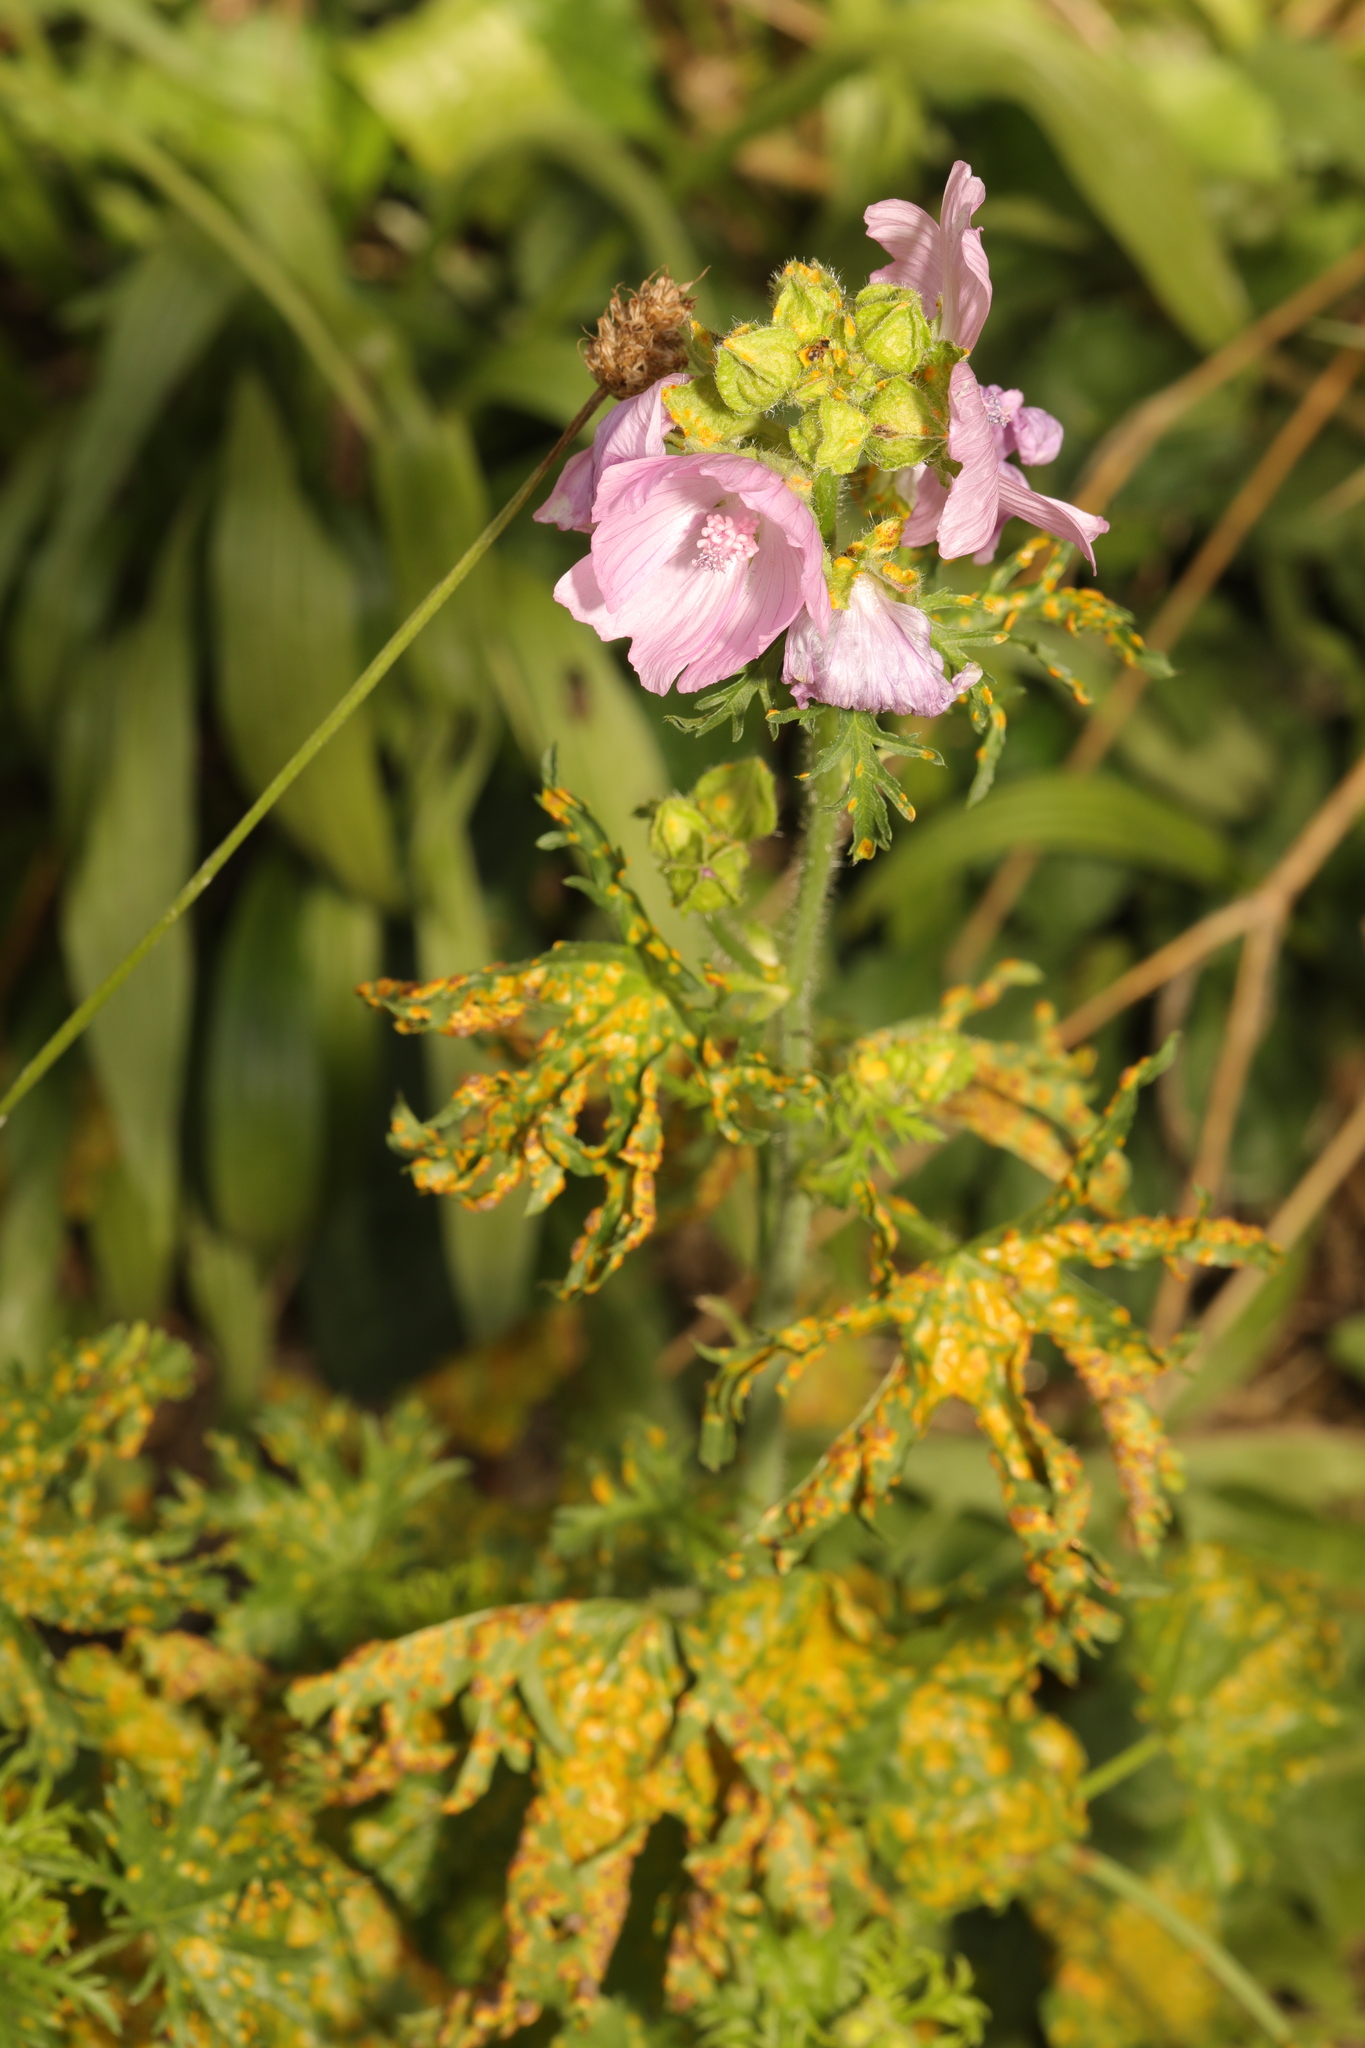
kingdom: Plantae
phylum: Tracheophyta
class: Magnoliopsida
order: Malvales
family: Malvaceae
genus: Malva
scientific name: Malva moschata
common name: Musk mallow
